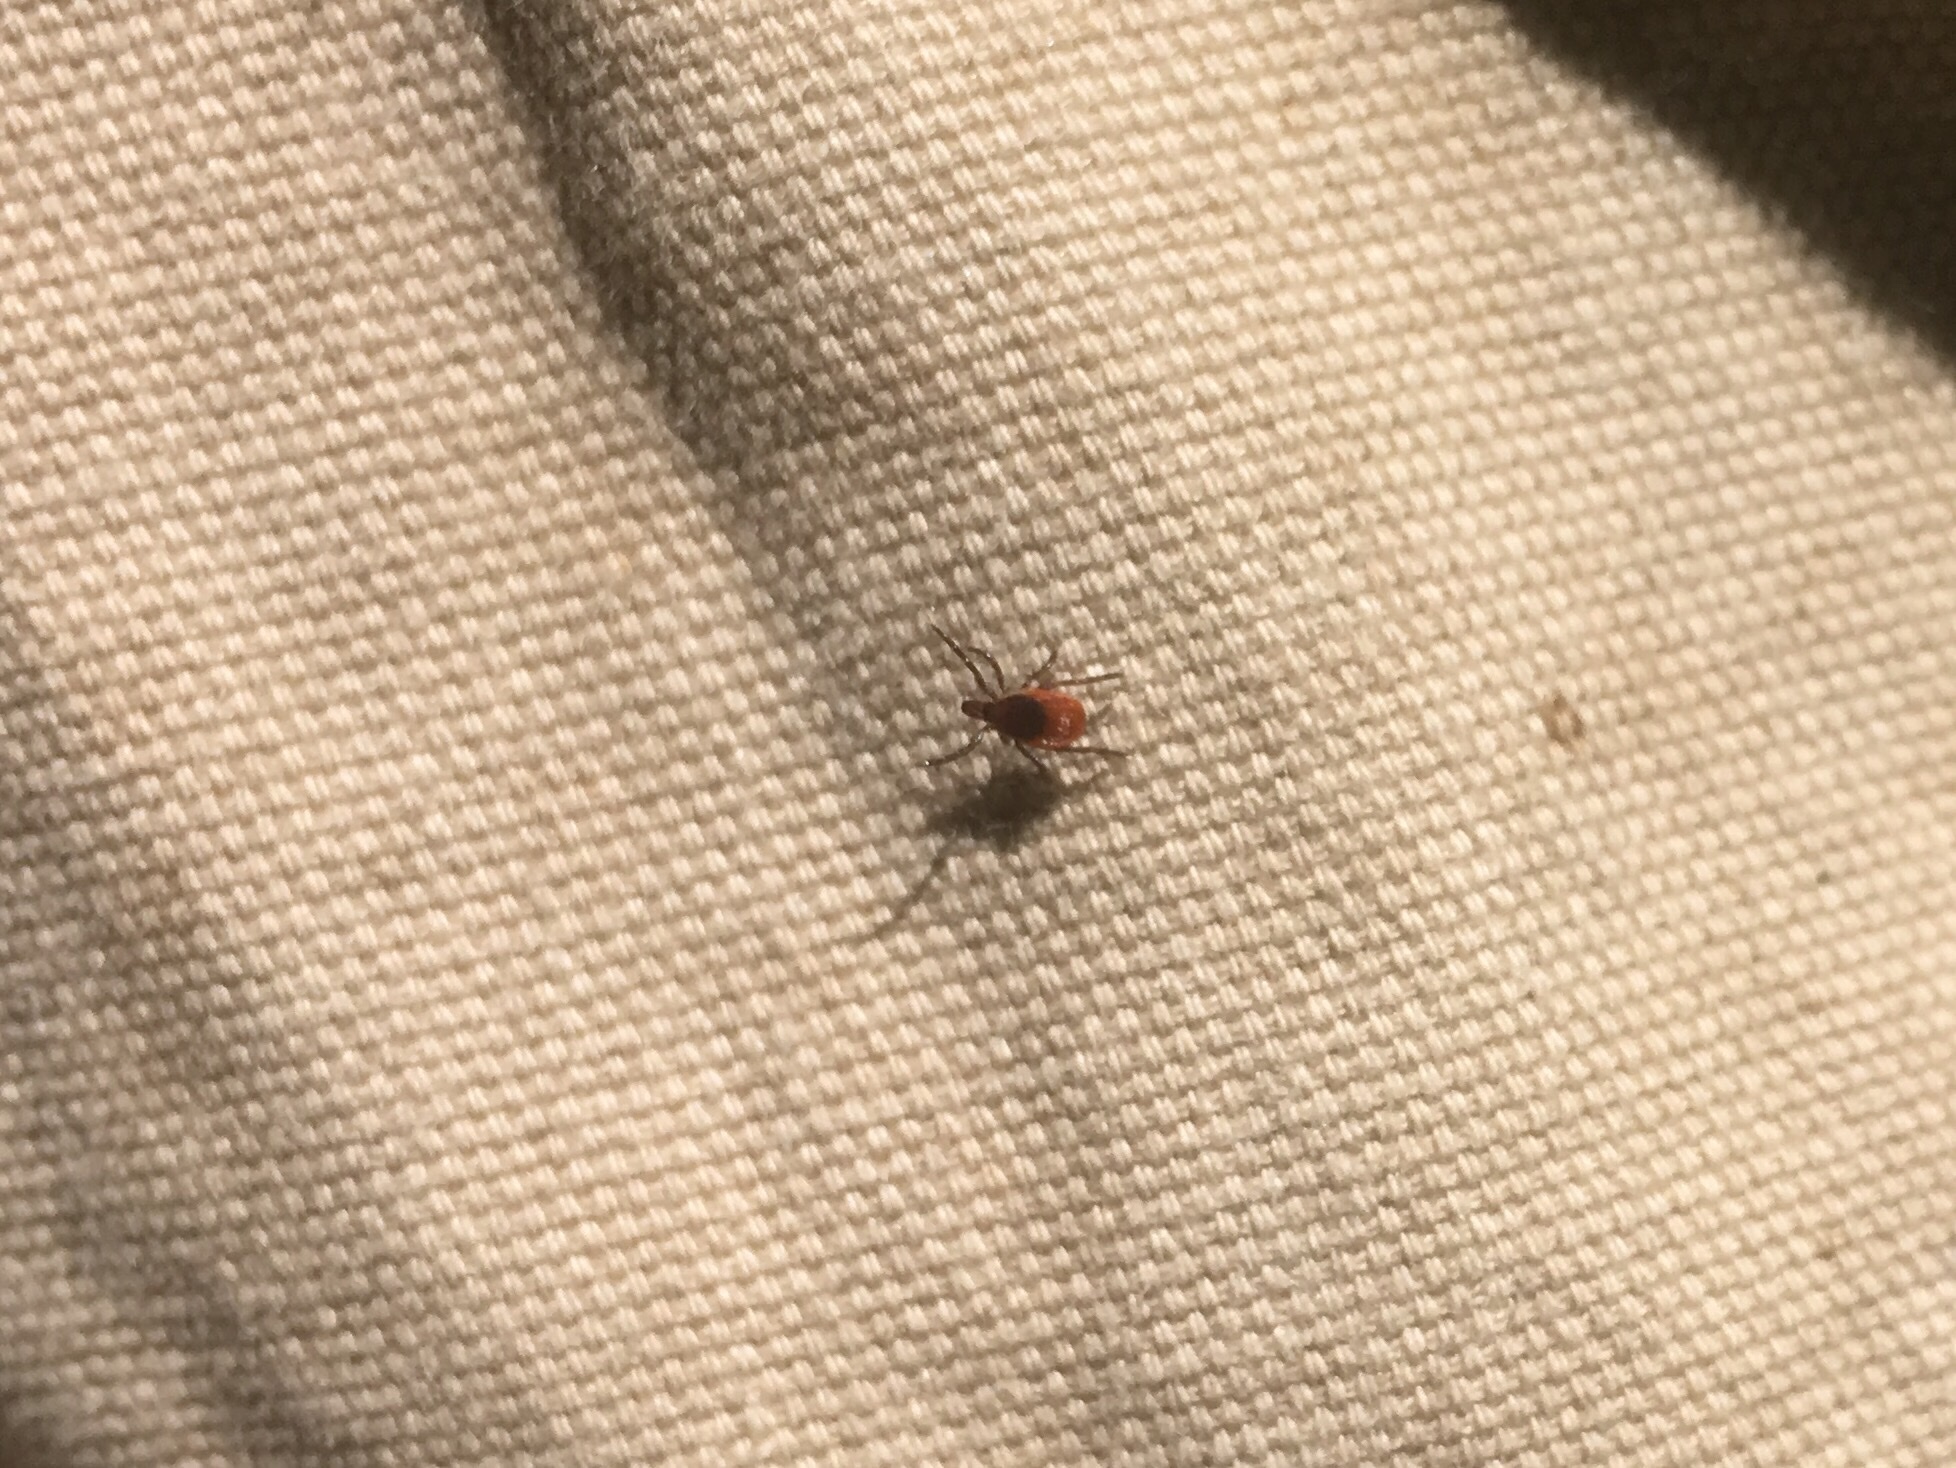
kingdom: Animalia
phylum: Arthropoda
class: Arachnida
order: Ixodida
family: Ixodidae
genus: Ixodes
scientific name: Ixodes scapularis
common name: Black legged tick
